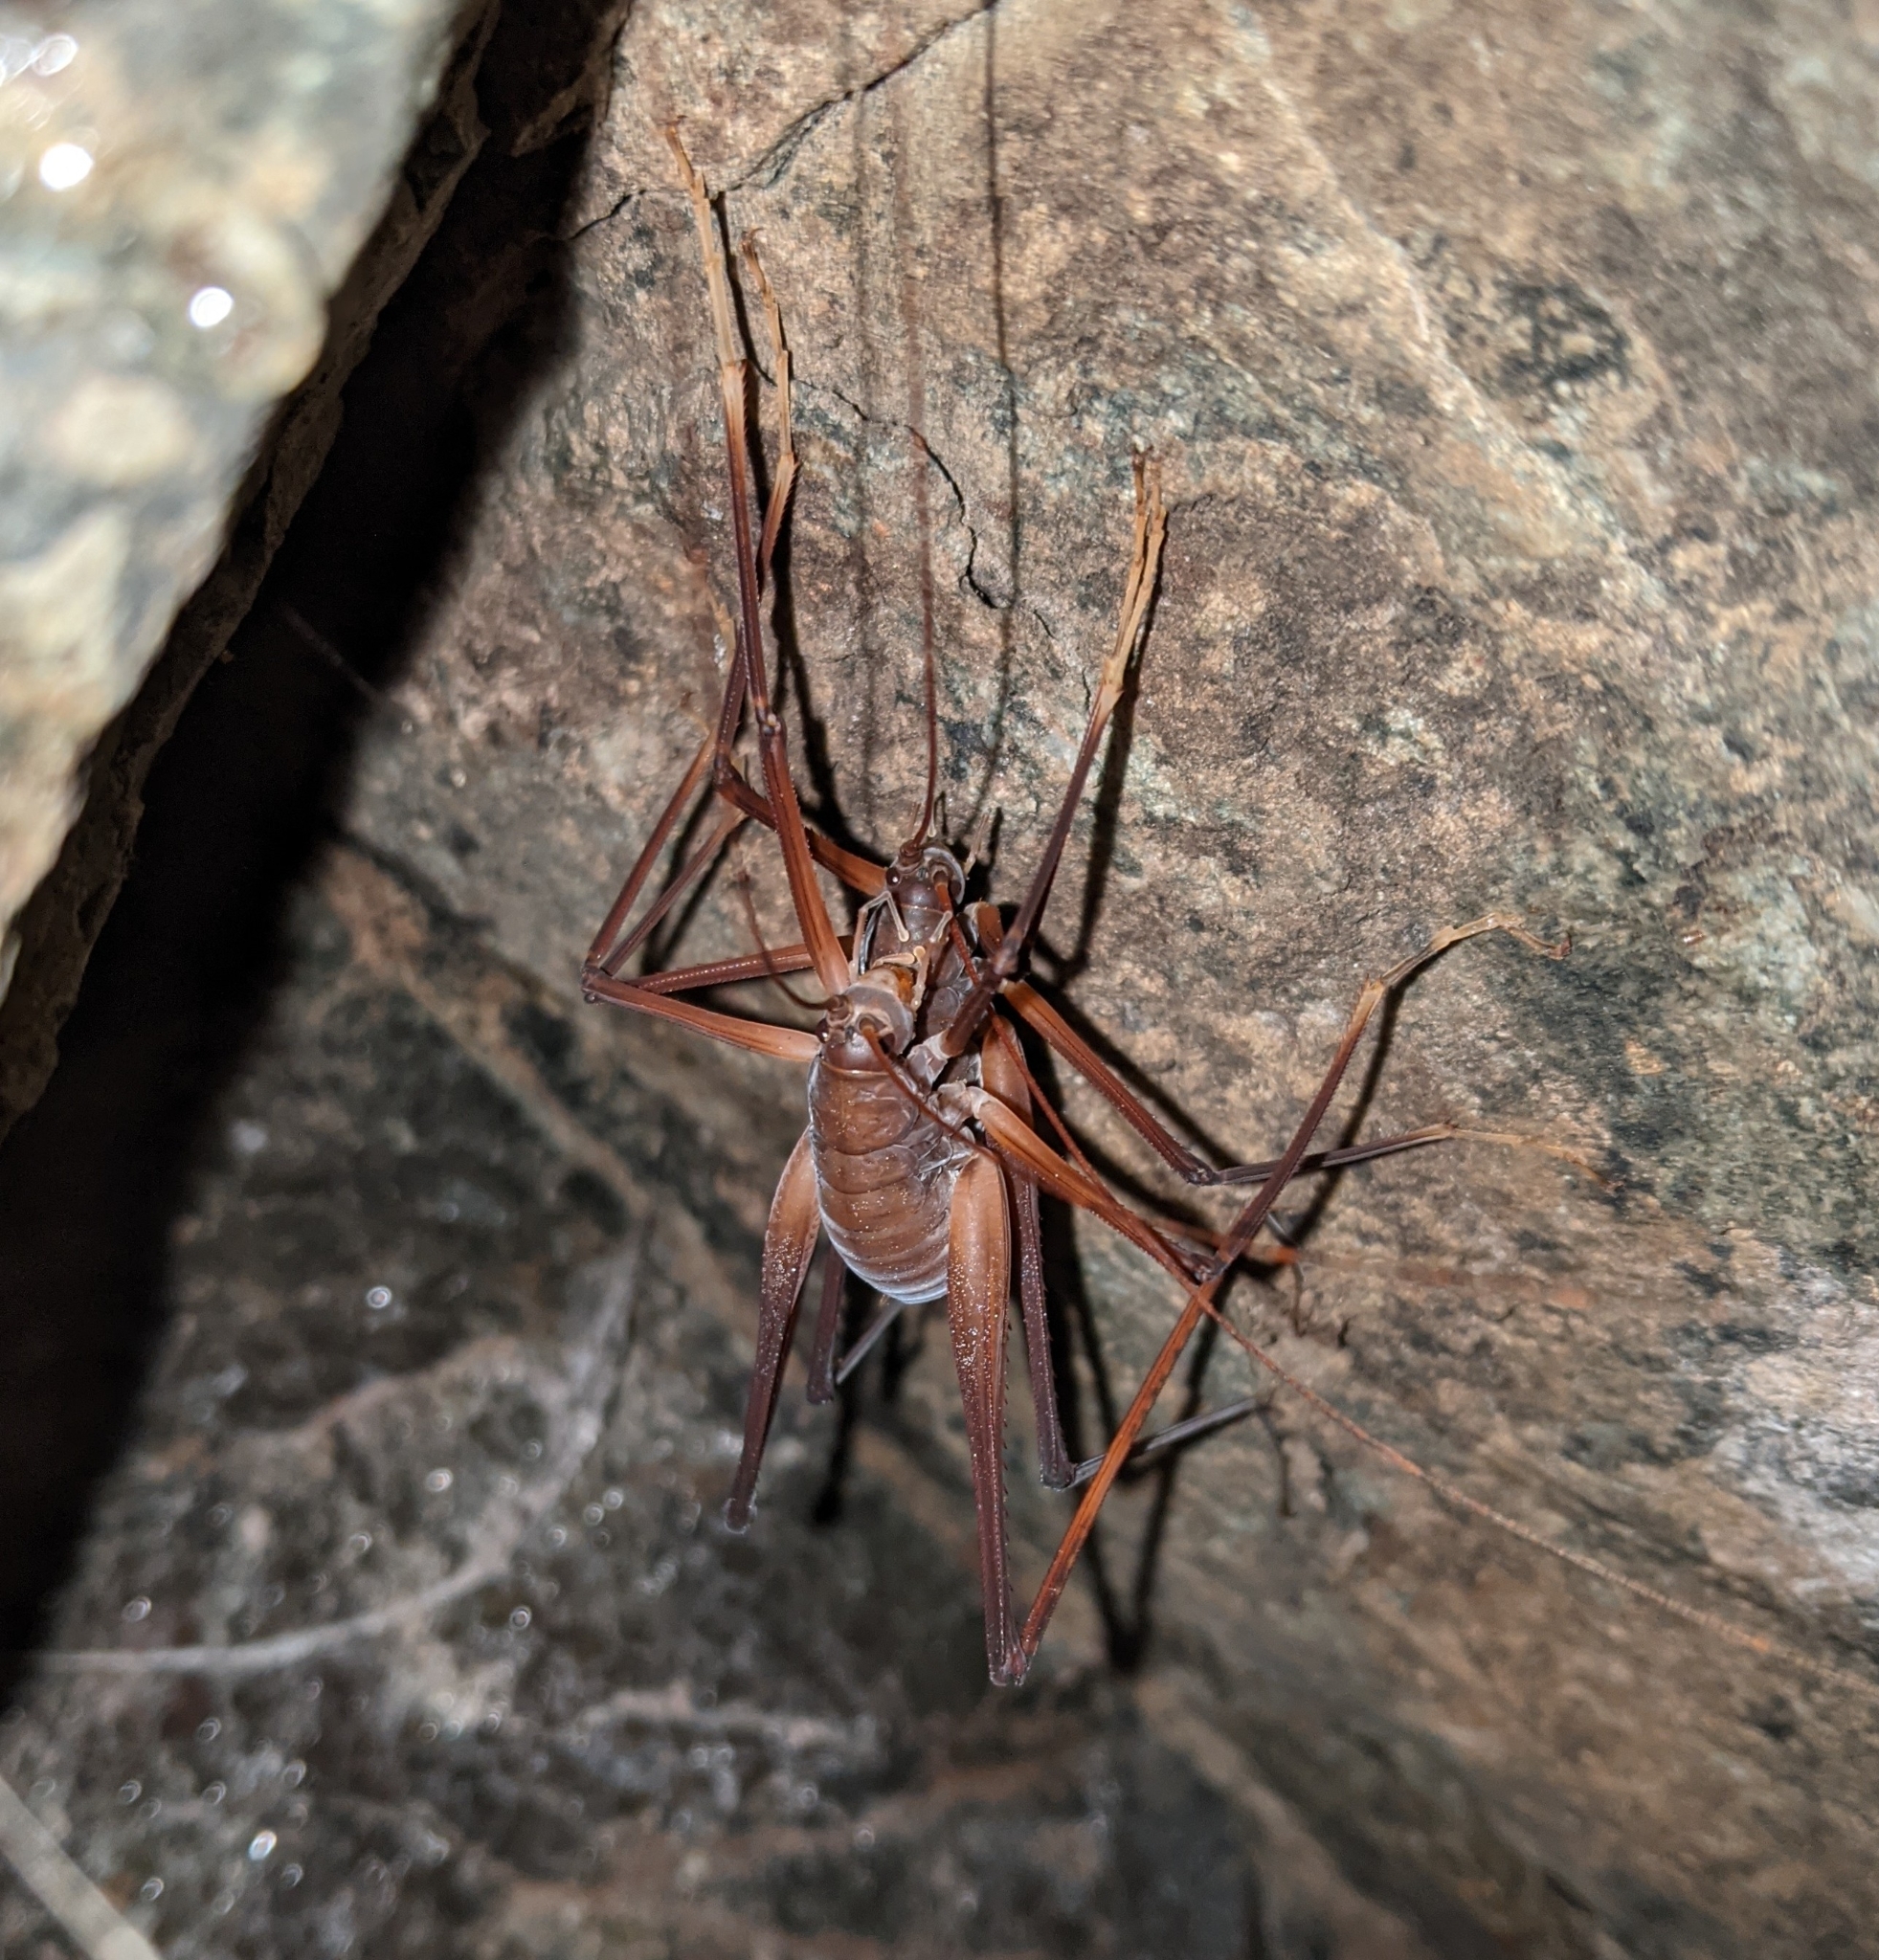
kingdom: Animalia
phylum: Arthropoda
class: Insecta
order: Orthoptera
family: Rhaphidophoridae
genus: Tropidischia
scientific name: Tropidischia xanthostoma
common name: Square-legged camel cricket
